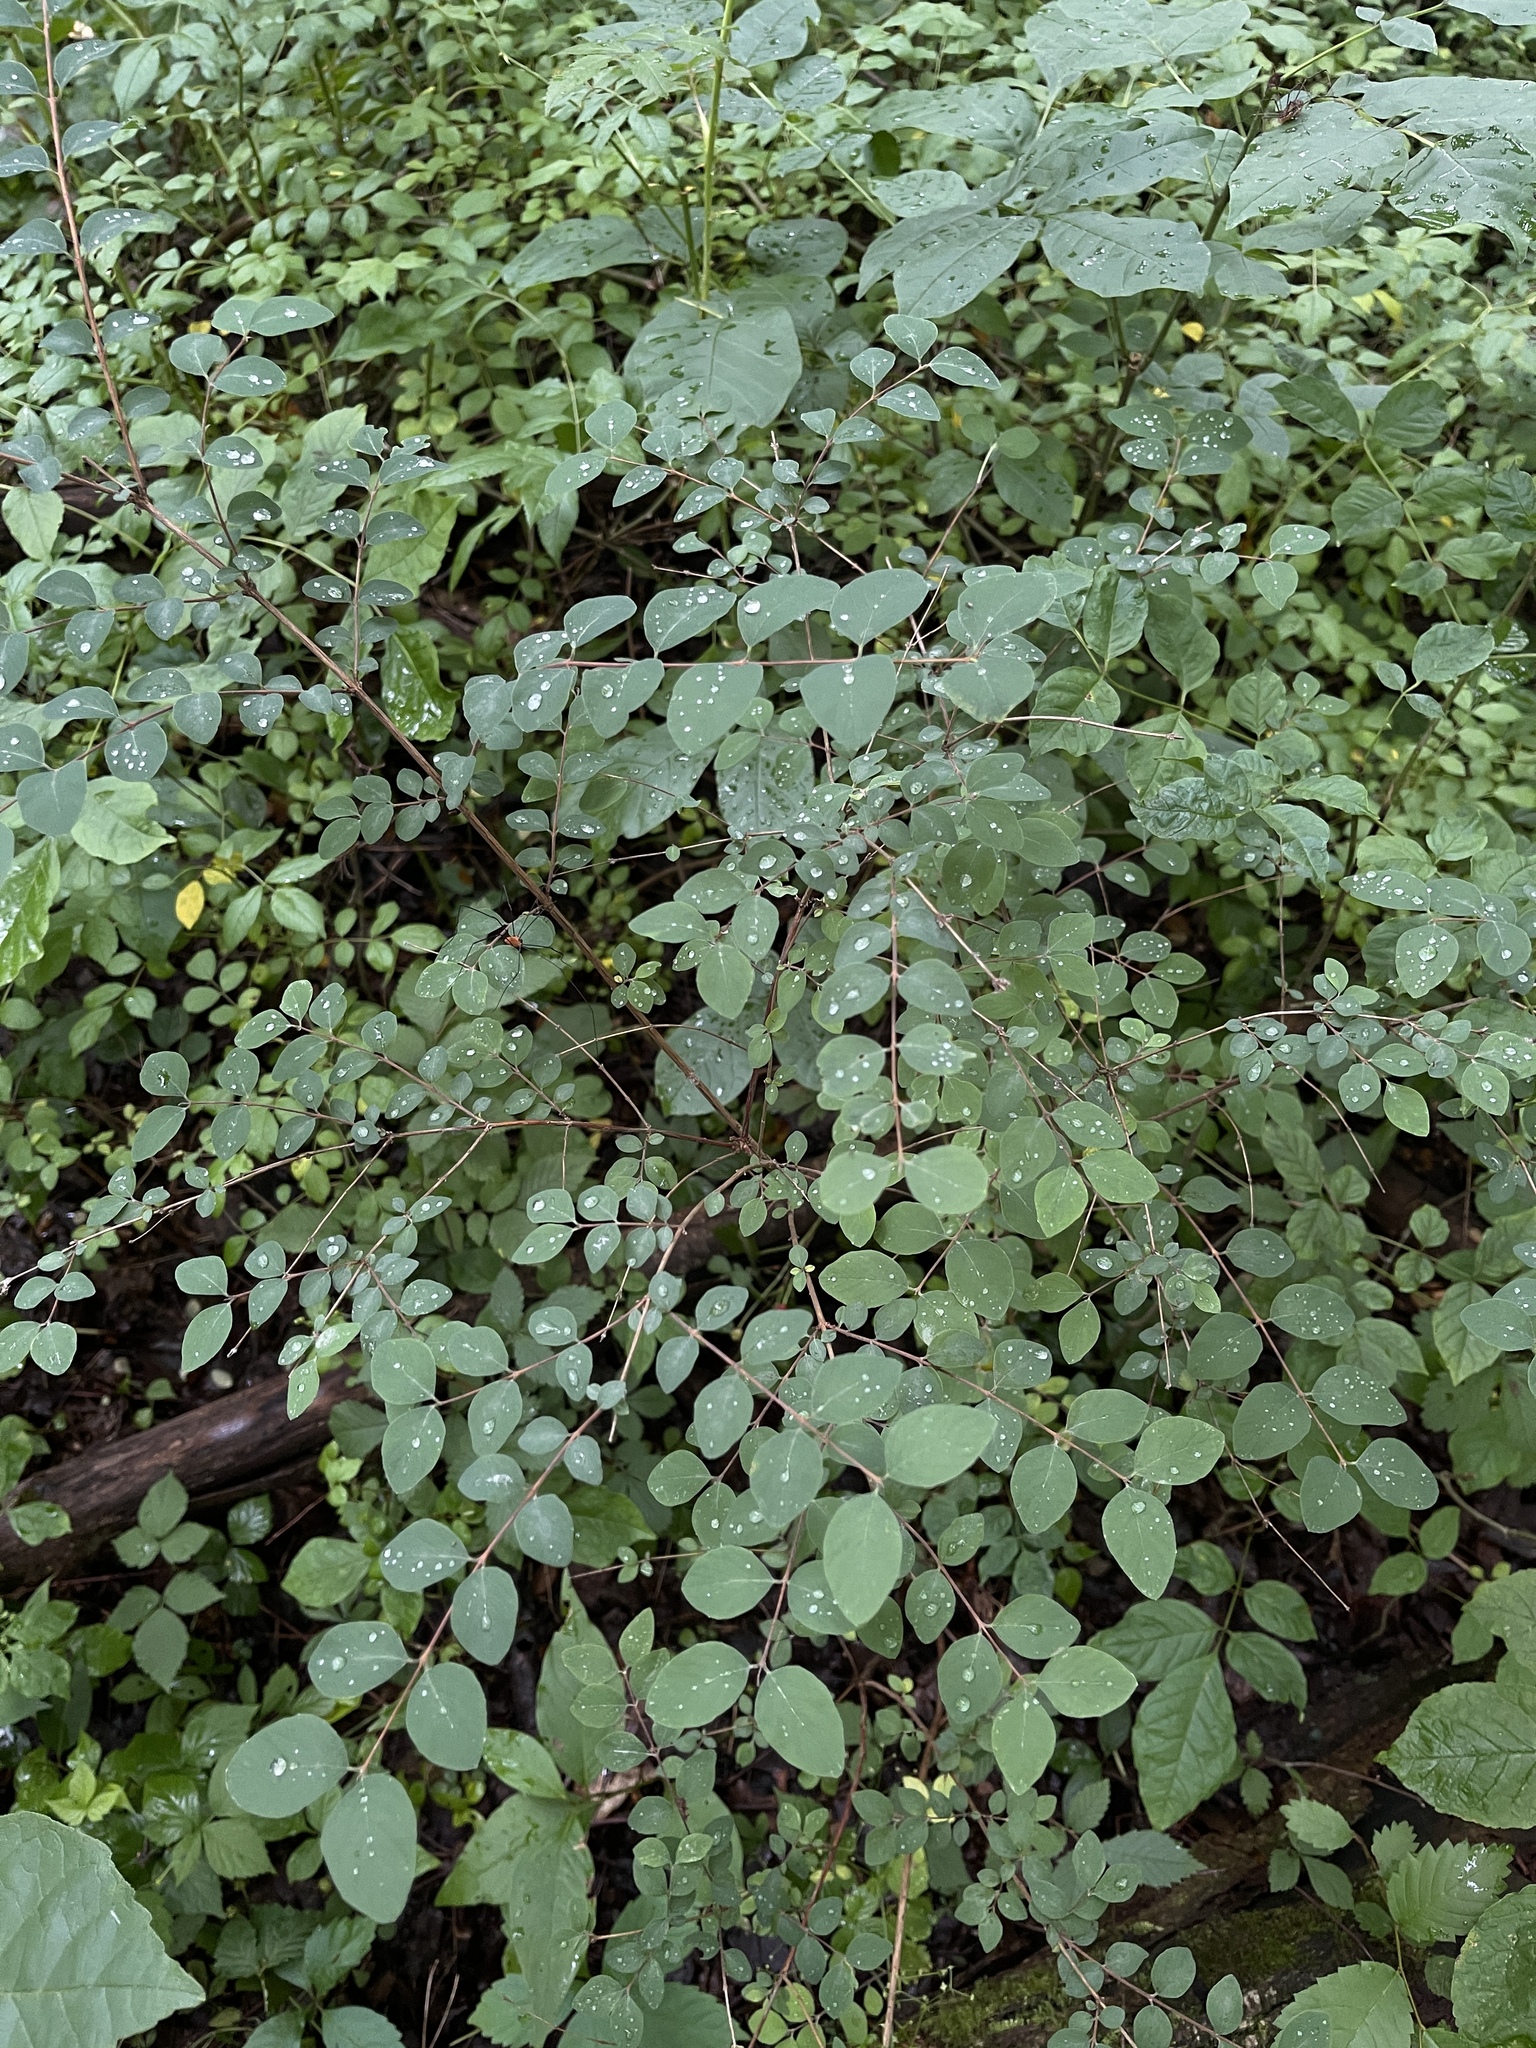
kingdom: Plantae
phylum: Tracheophyta
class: Magnoliopsida
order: Dipsacales
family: Caprifoliaceae
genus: Symphoricarpos
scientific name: Symphoricarpos orbiculatus
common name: Coralberry
